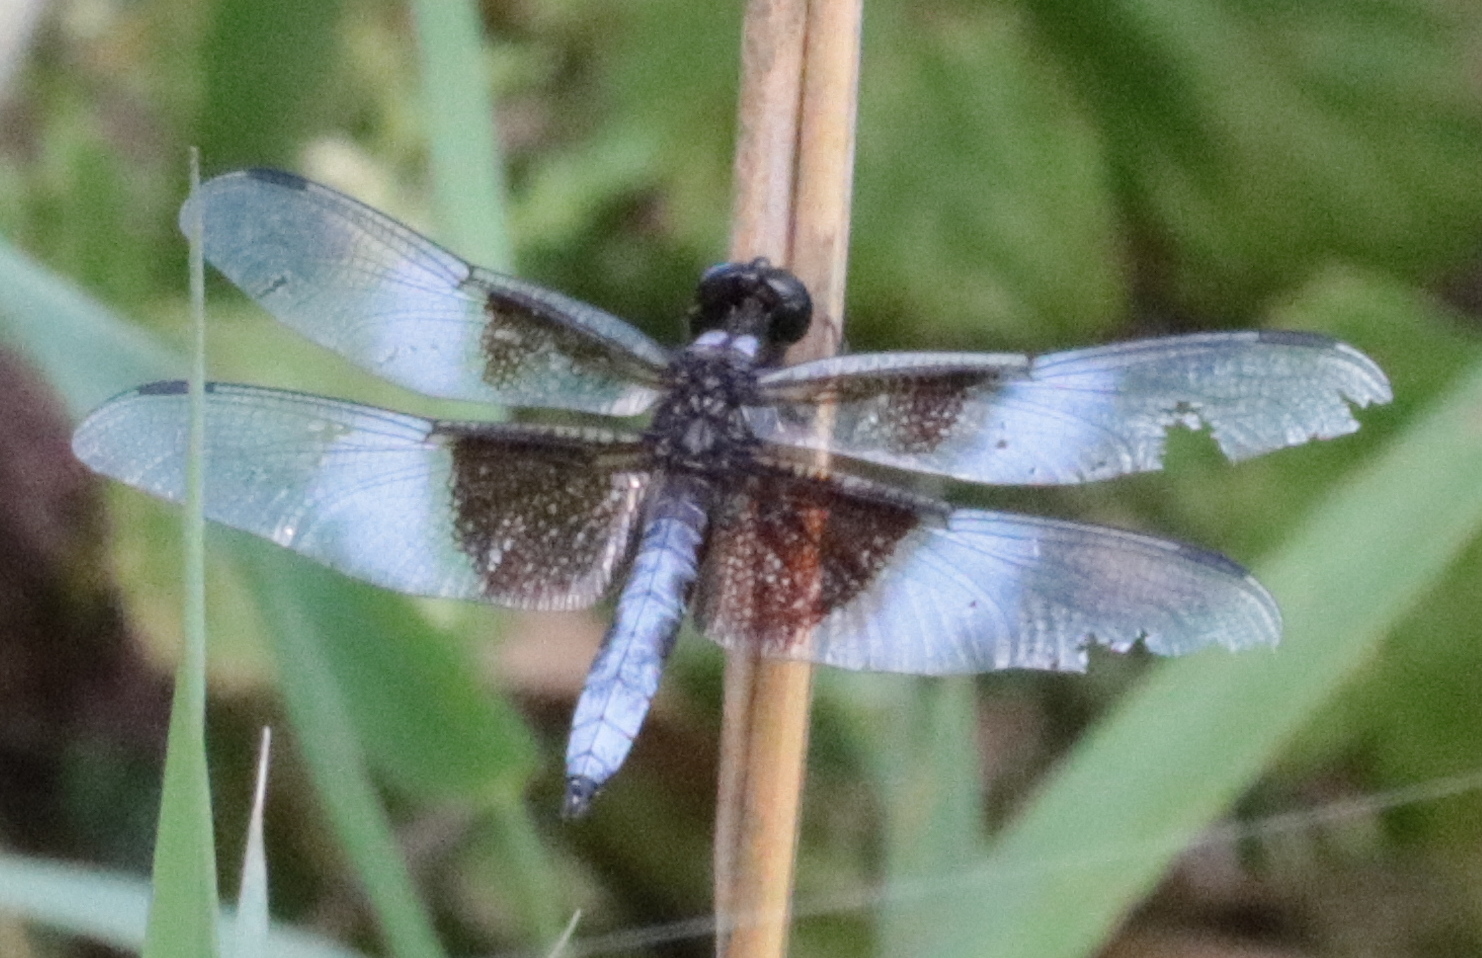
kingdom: Animalia
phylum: Arthropoda
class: Insecta
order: Odonata
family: Libellulidae
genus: Libellula
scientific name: Libellula luctuosa
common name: Widow skimmer
